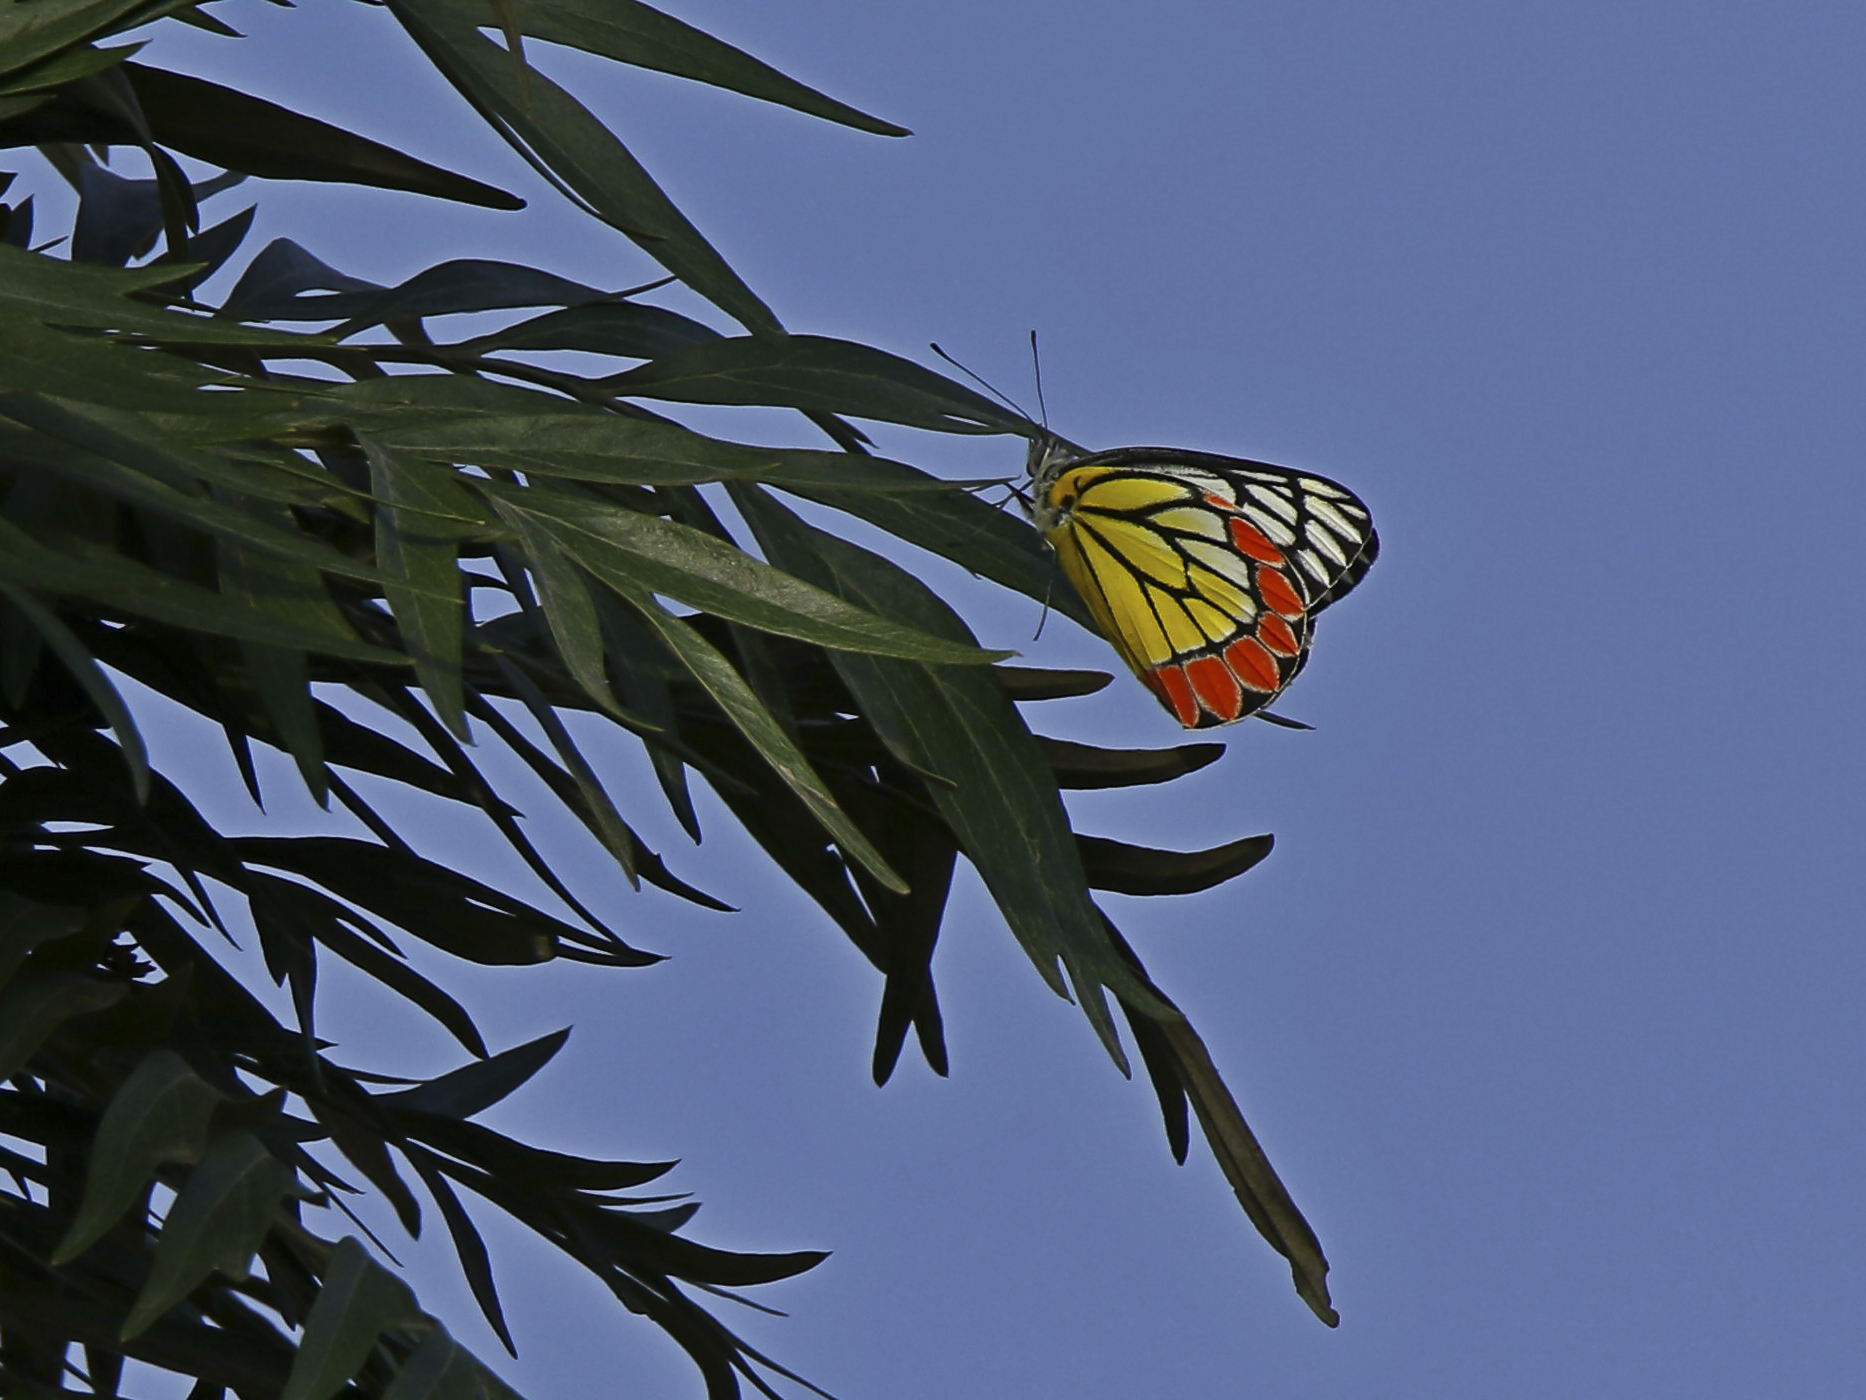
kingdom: Animalia
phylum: Arthropoda
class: Insecta
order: Lepidoptera
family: Pieridae
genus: Delias
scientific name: Delias eucharis
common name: Common jezebel
